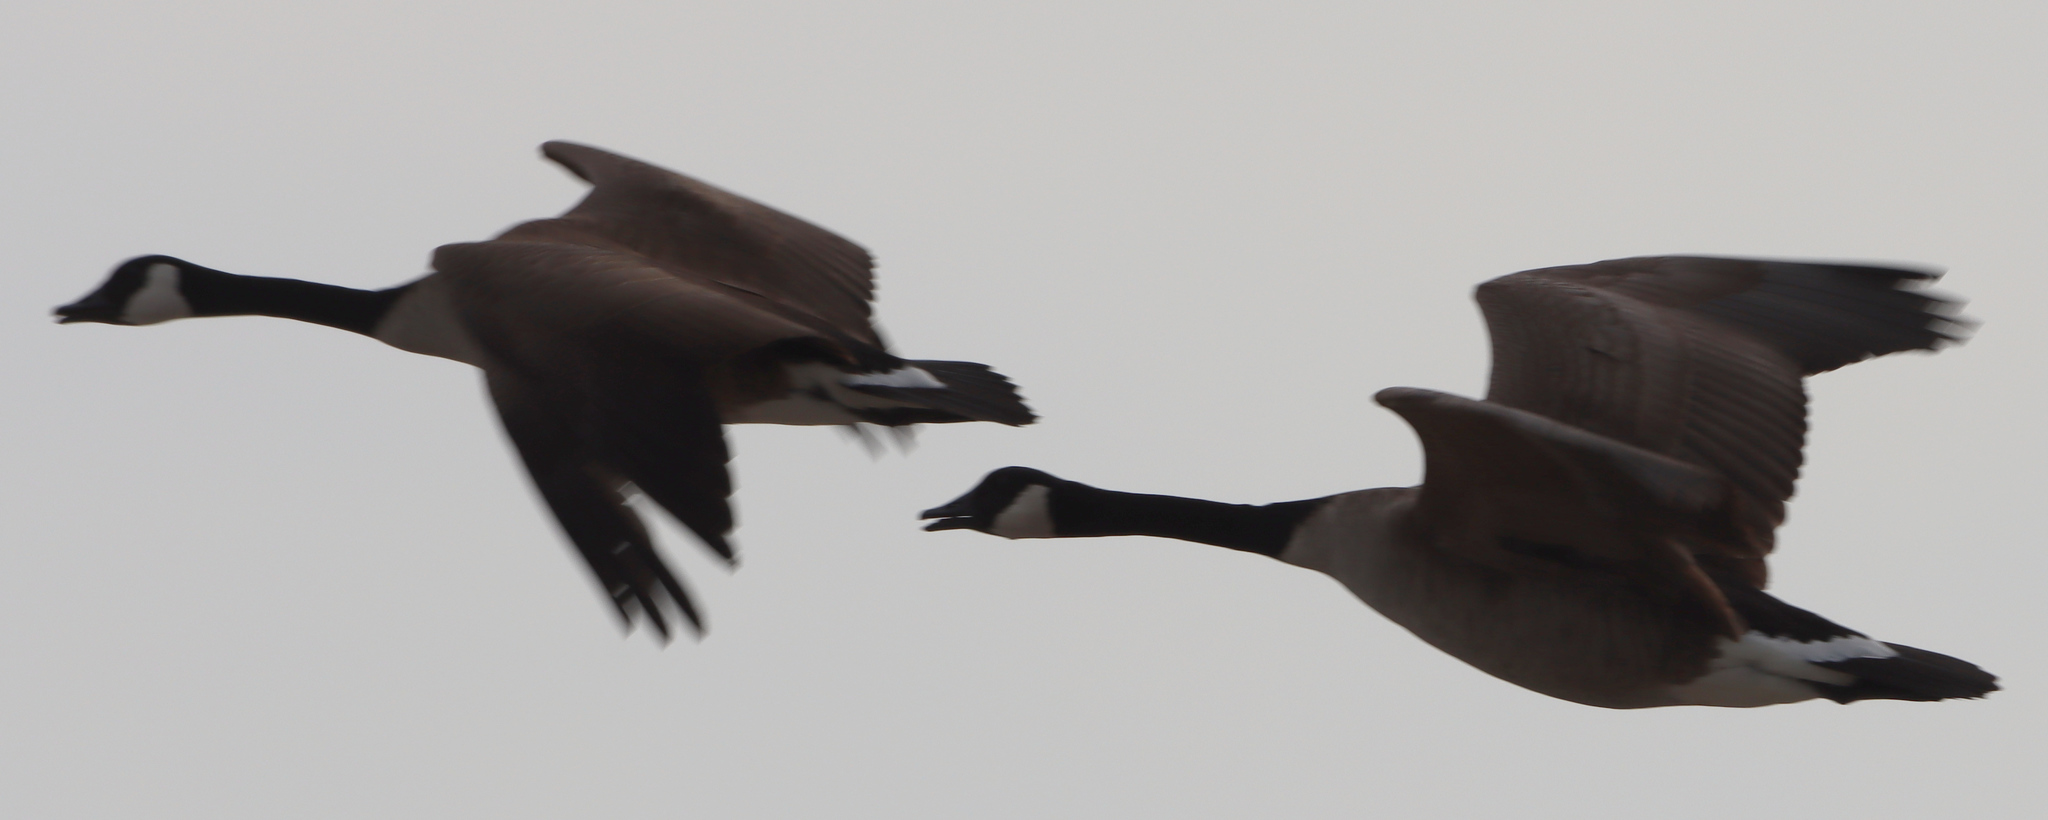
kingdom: Animalia
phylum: Chordata
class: Aves
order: Anseriformes
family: Anatidae
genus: Branta
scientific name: Branta canadensis
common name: Canada goose
